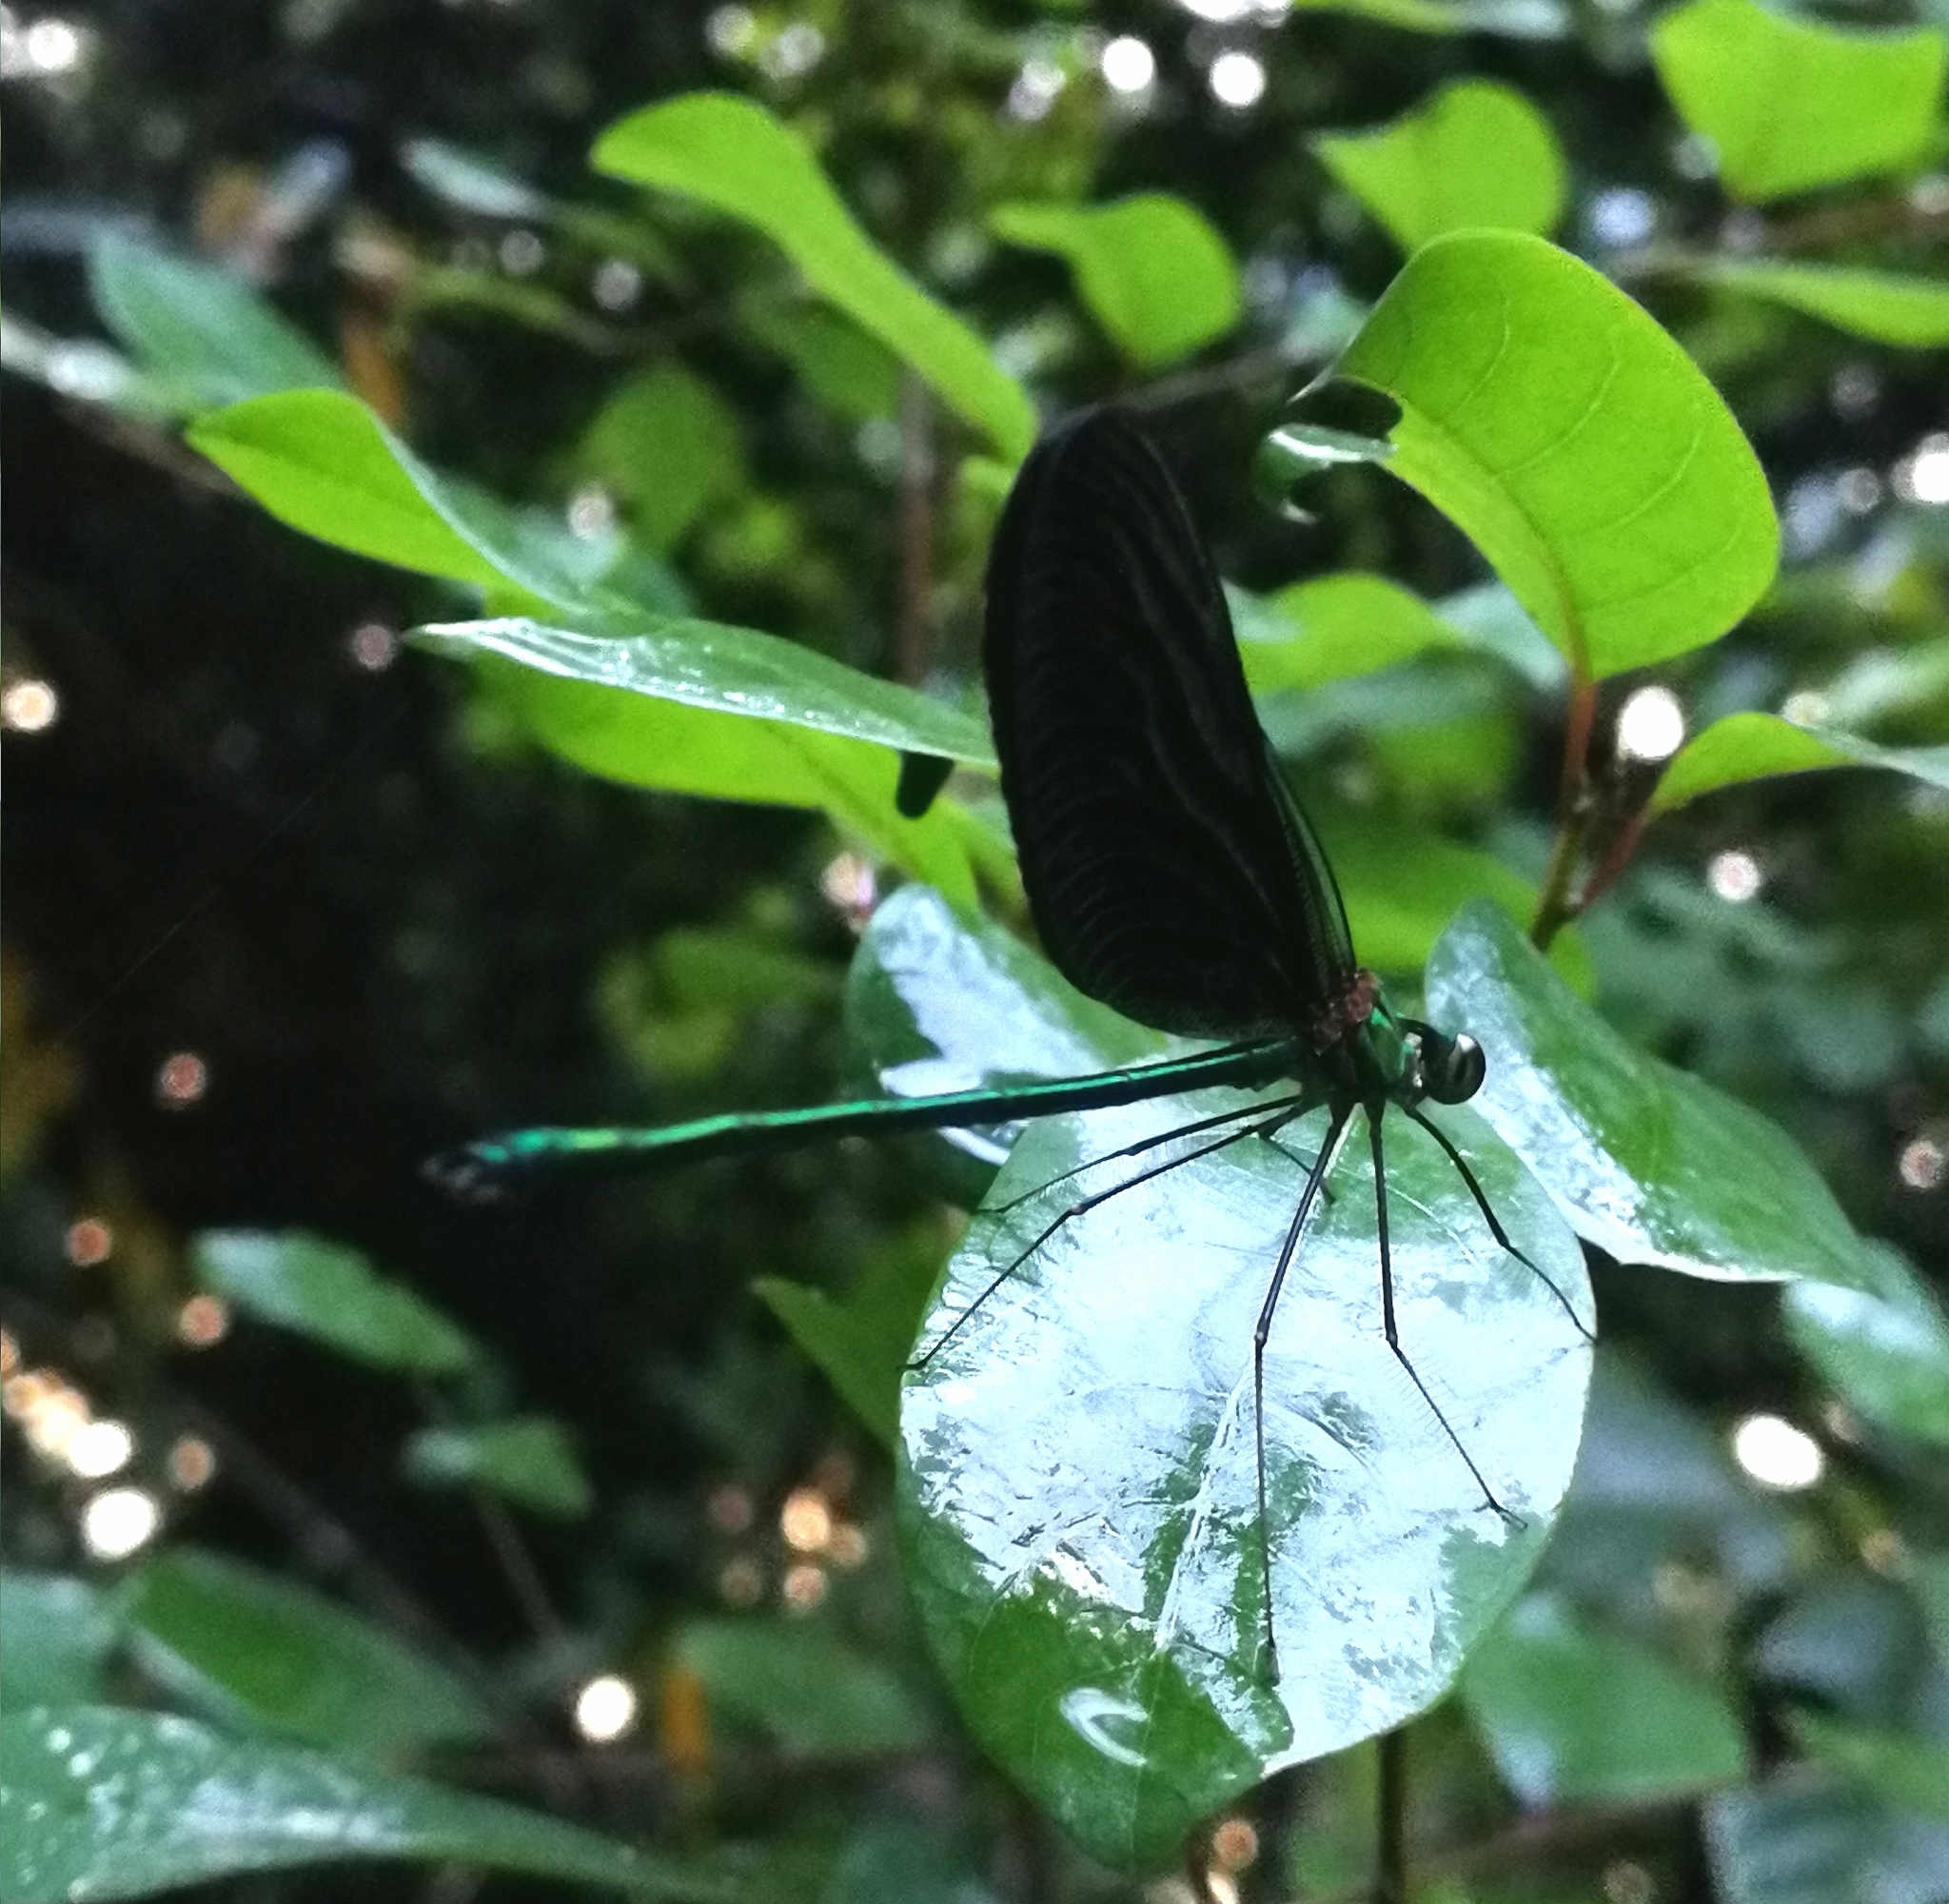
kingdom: Animalia
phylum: Arthropoda
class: Insecta
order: Odonata
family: Calopterygidae
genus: Neurobasis
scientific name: Neurobasis chinensis
